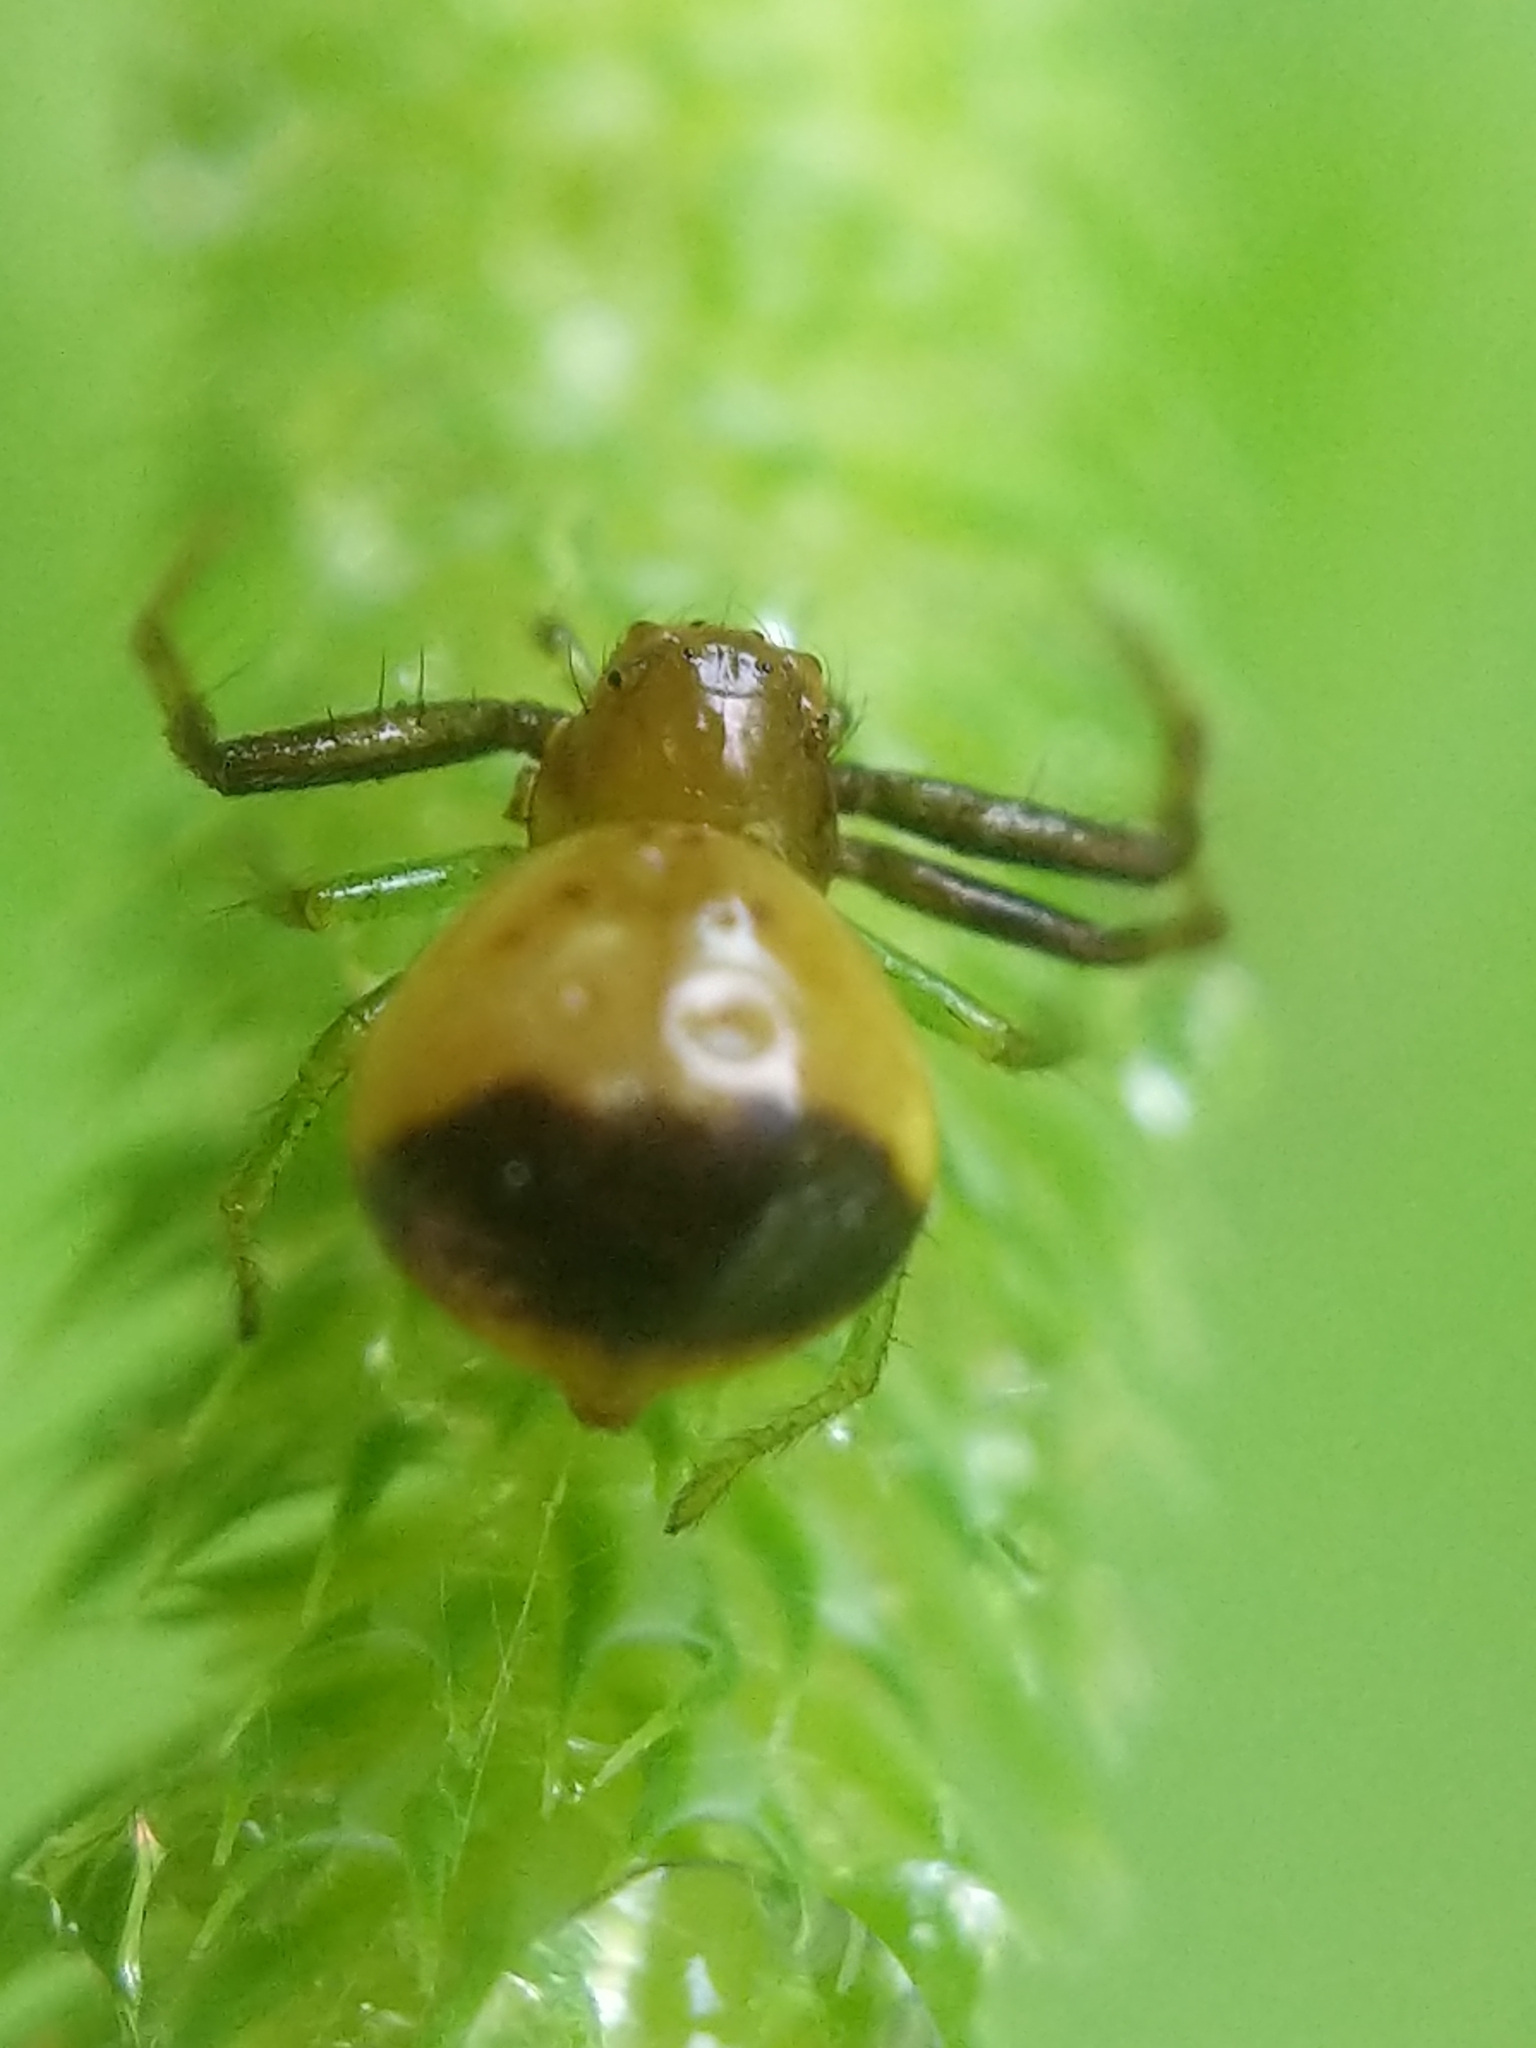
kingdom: Animalia
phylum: Arthropoda
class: Arachnida
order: Araneae
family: Thomisidae
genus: Synema
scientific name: Synema parvulum
